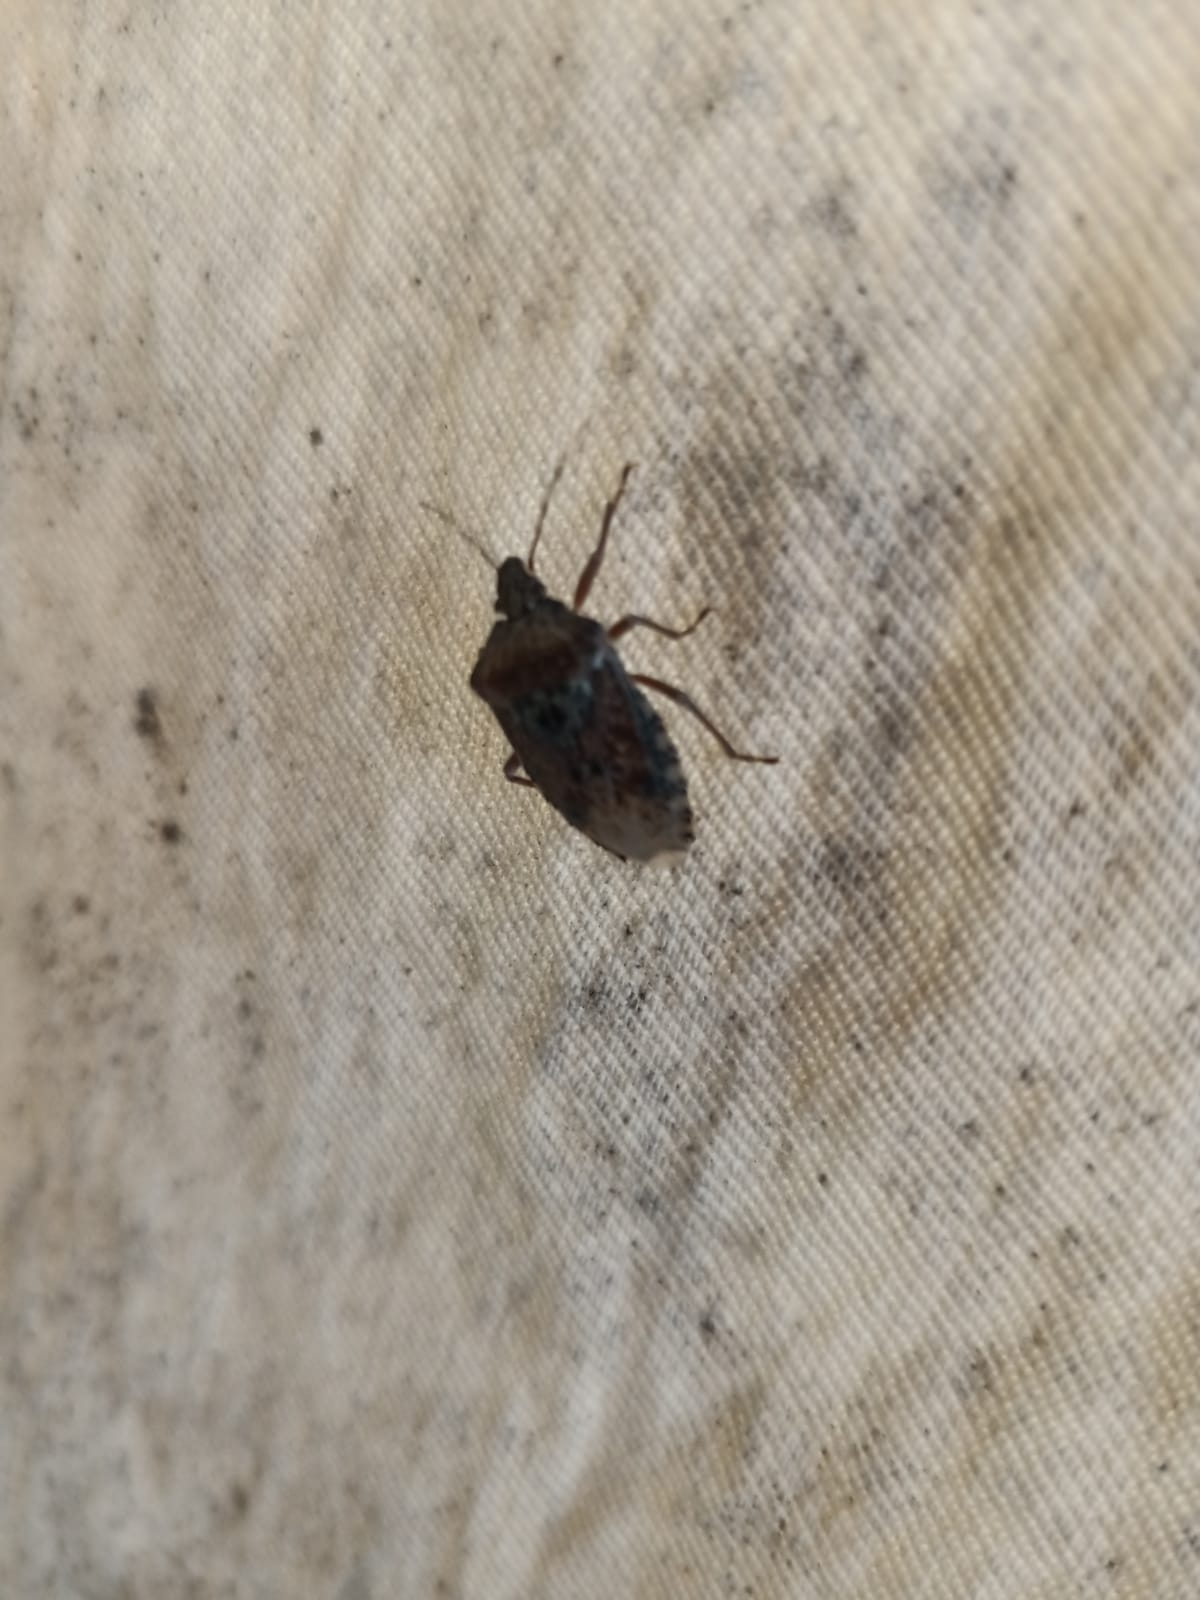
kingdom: Animalia
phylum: Arthropoda
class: Insecta
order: Hemiptera
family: Pentatomidae
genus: Rhaphigaster
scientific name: Rhaphigaster nebulosa
